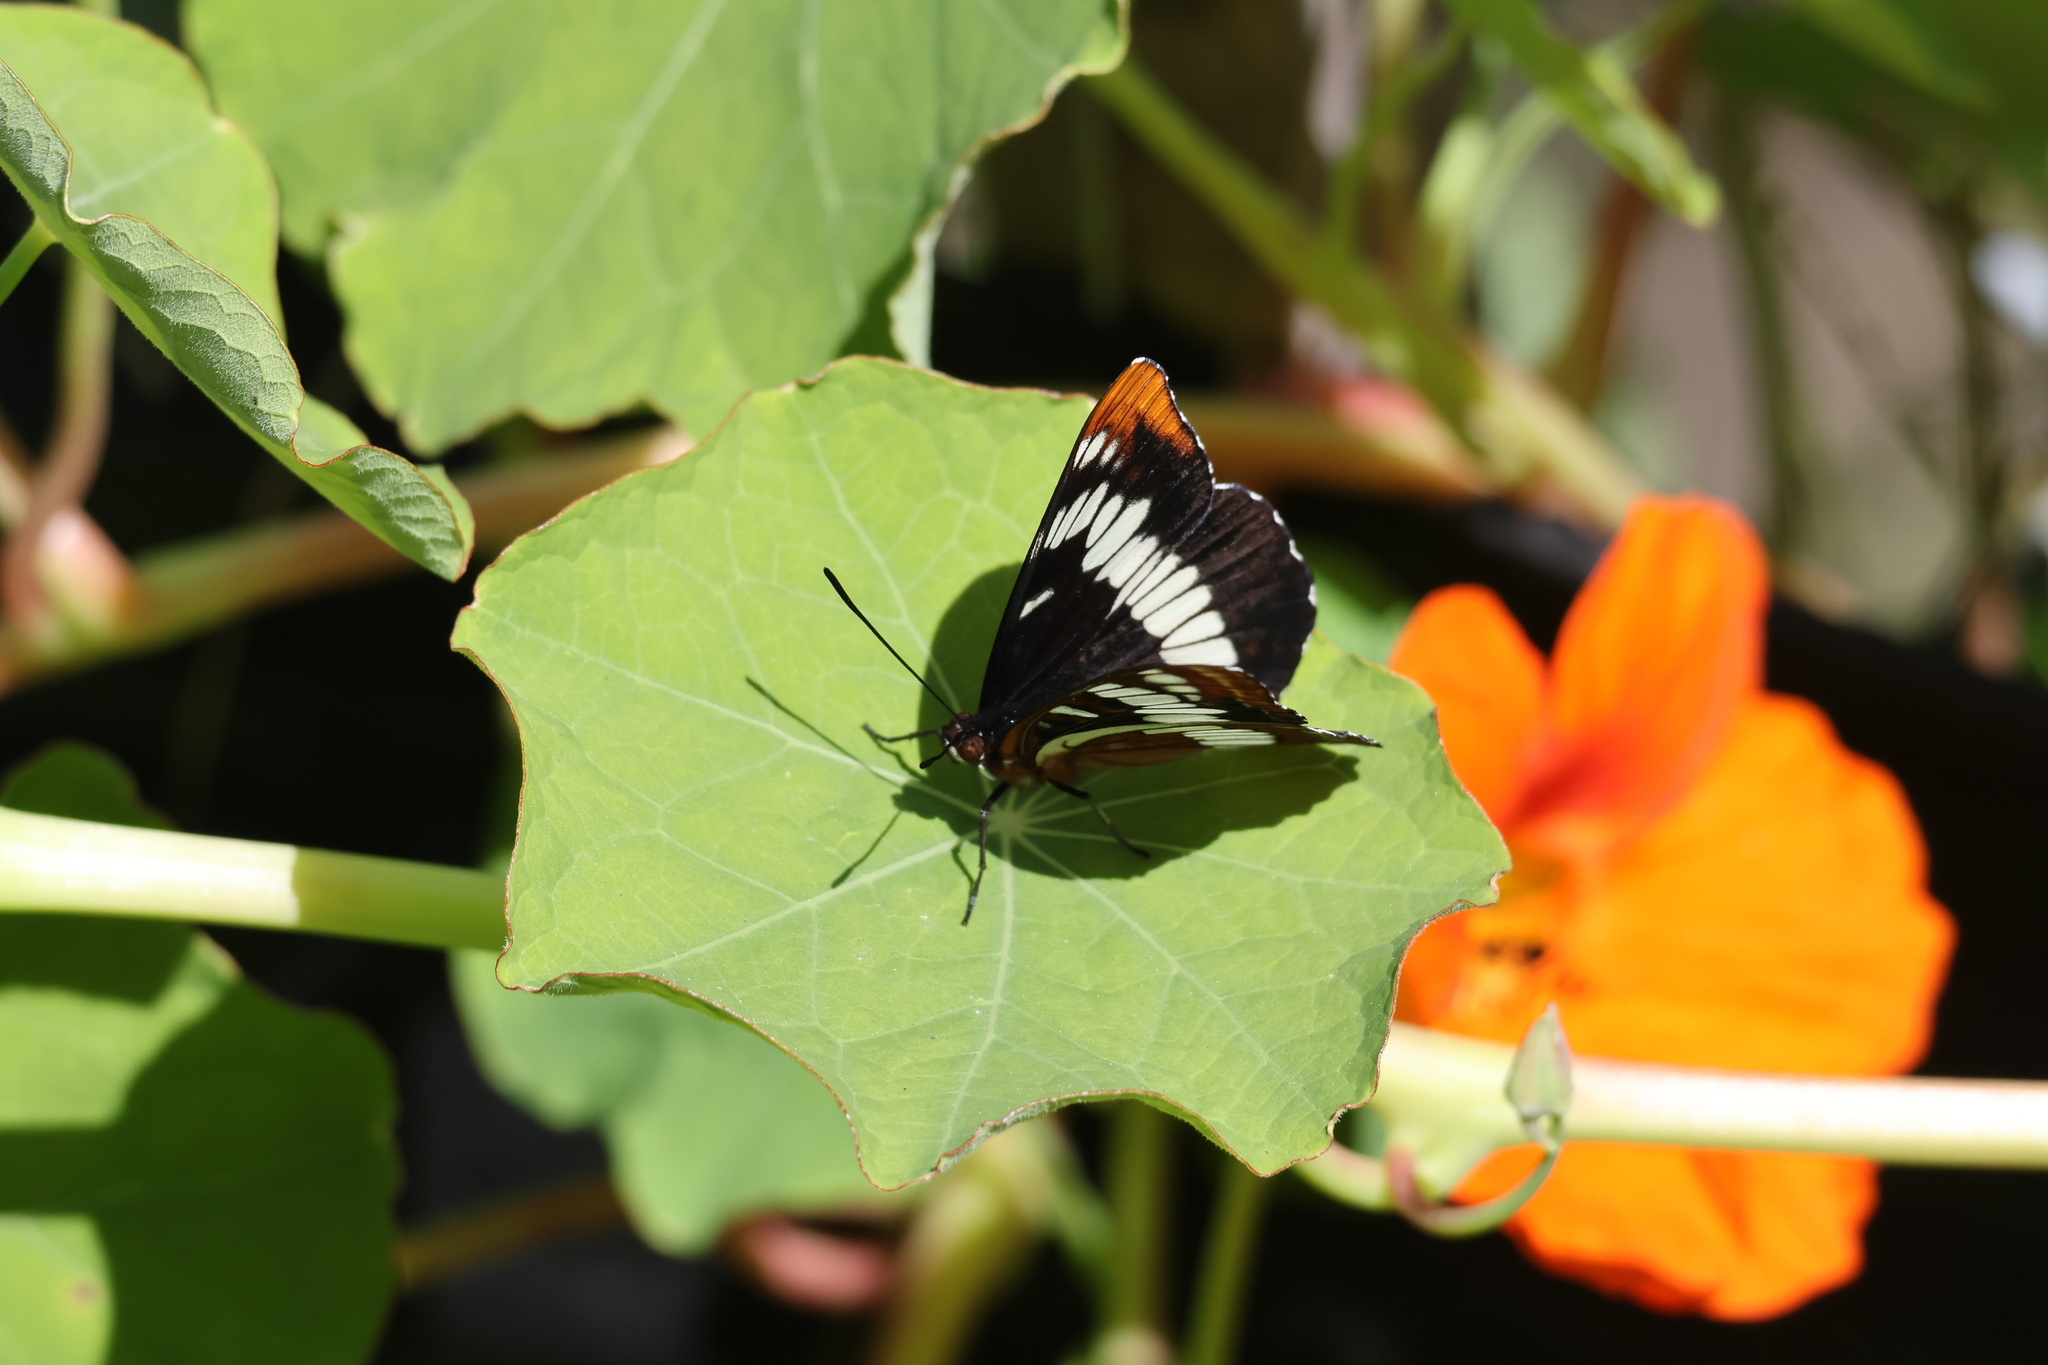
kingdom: Animalia
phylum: Arthropoda
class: Insecta
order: Lepidoptera
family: Nymphalidae
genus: Limenitis
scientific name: Limenitis lorquini
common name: Lorquin's admiral
